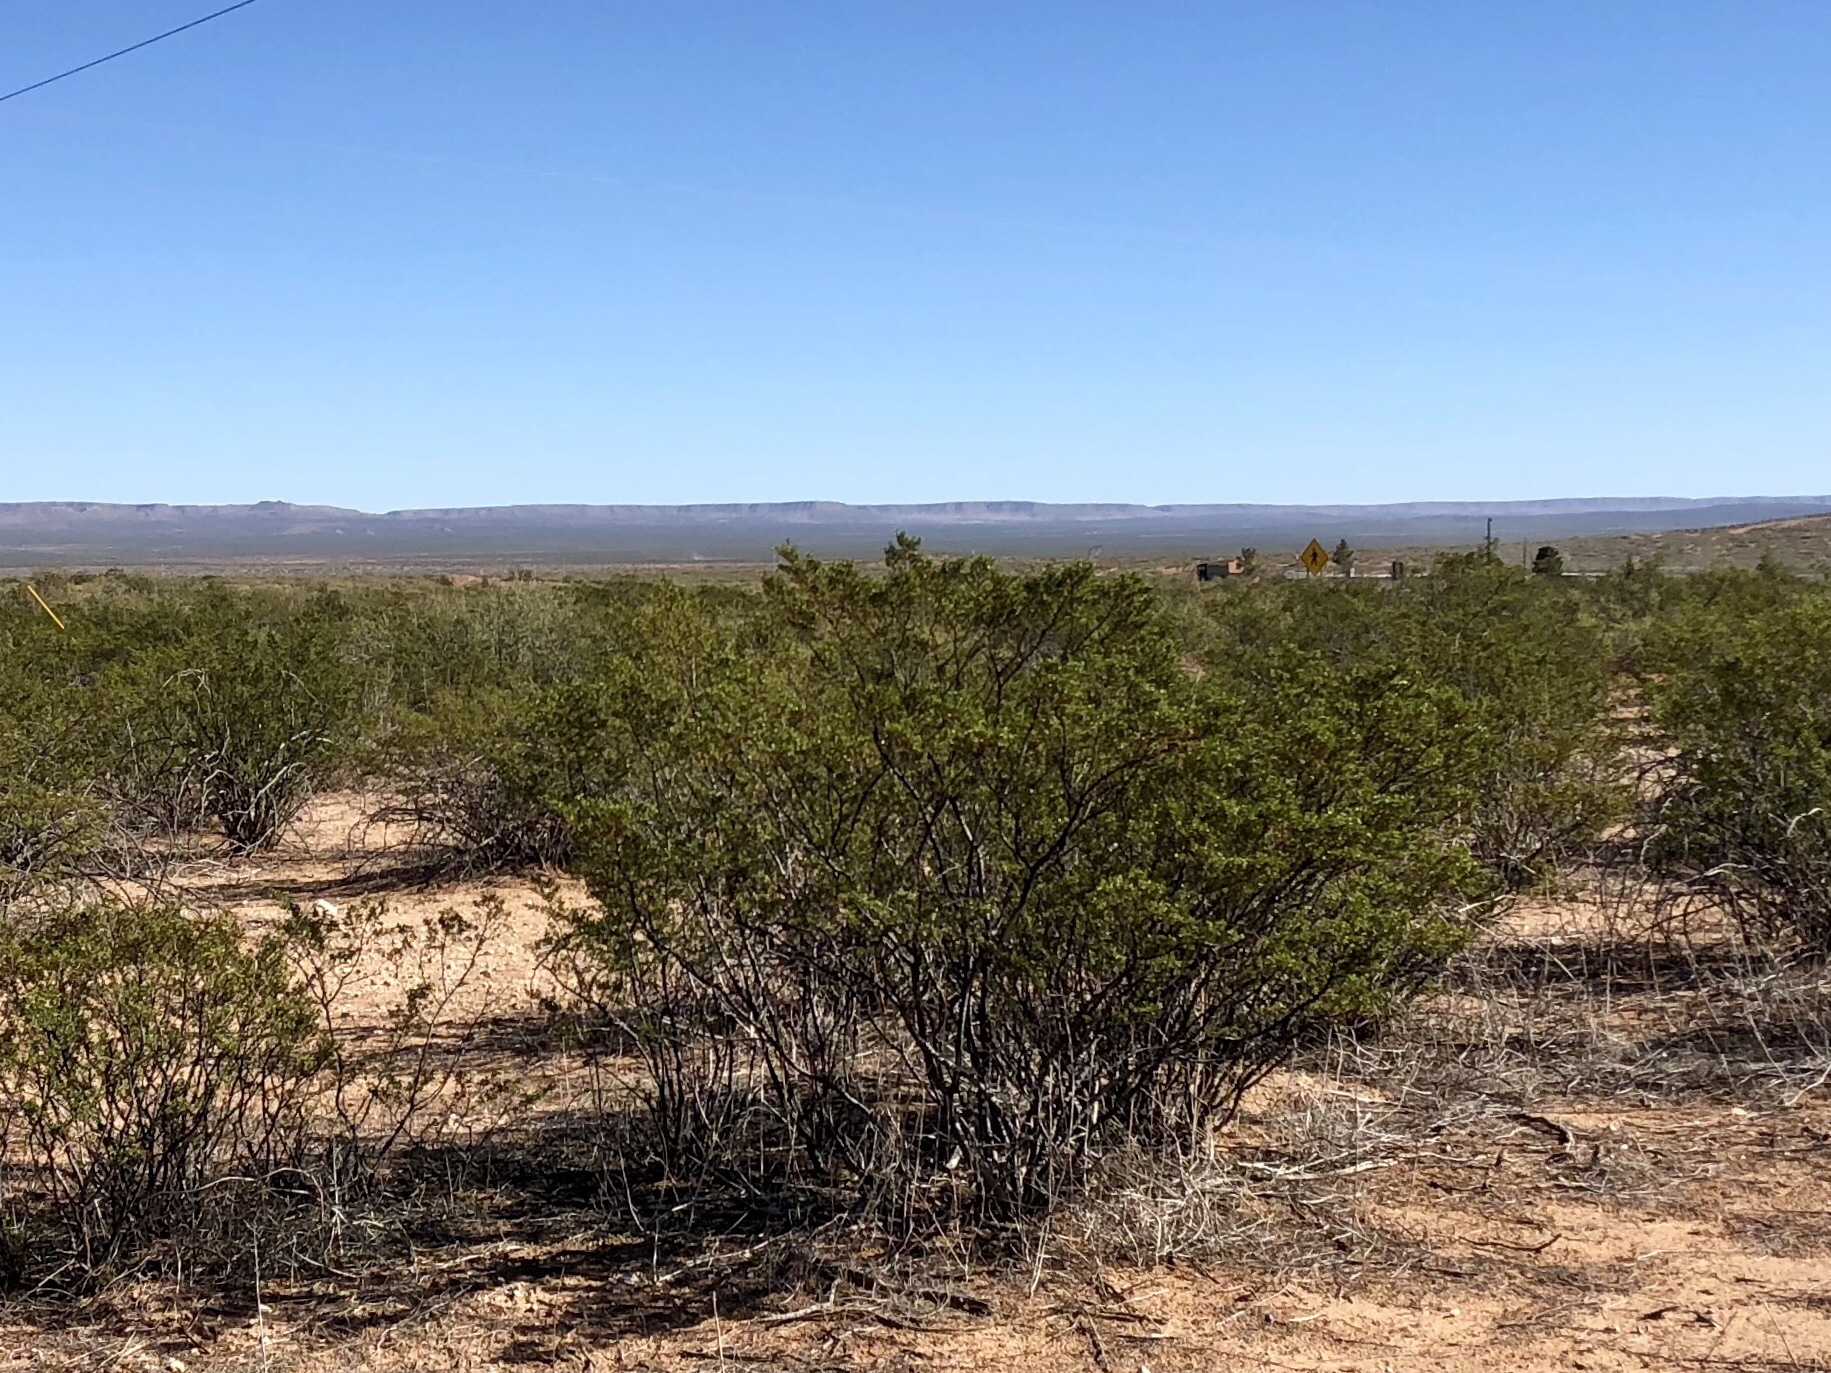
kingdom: Plantae
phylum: Tracheophyta
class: Magnoliopsida
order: Zygophyllales
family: Zygophyllaceae
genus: Larrea
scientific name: Larrea tridentata
